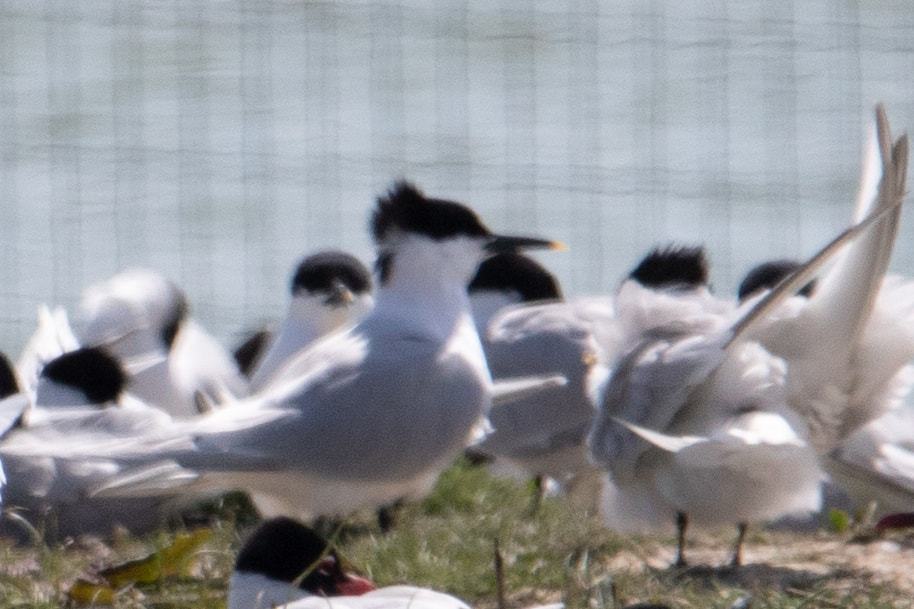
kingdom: Animalia
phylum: Chordata
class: Aves
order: Charadriiformes
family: Laridae
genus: Thalasseus
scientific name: Thalasseus sandvicensis
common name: Sandwich tern
